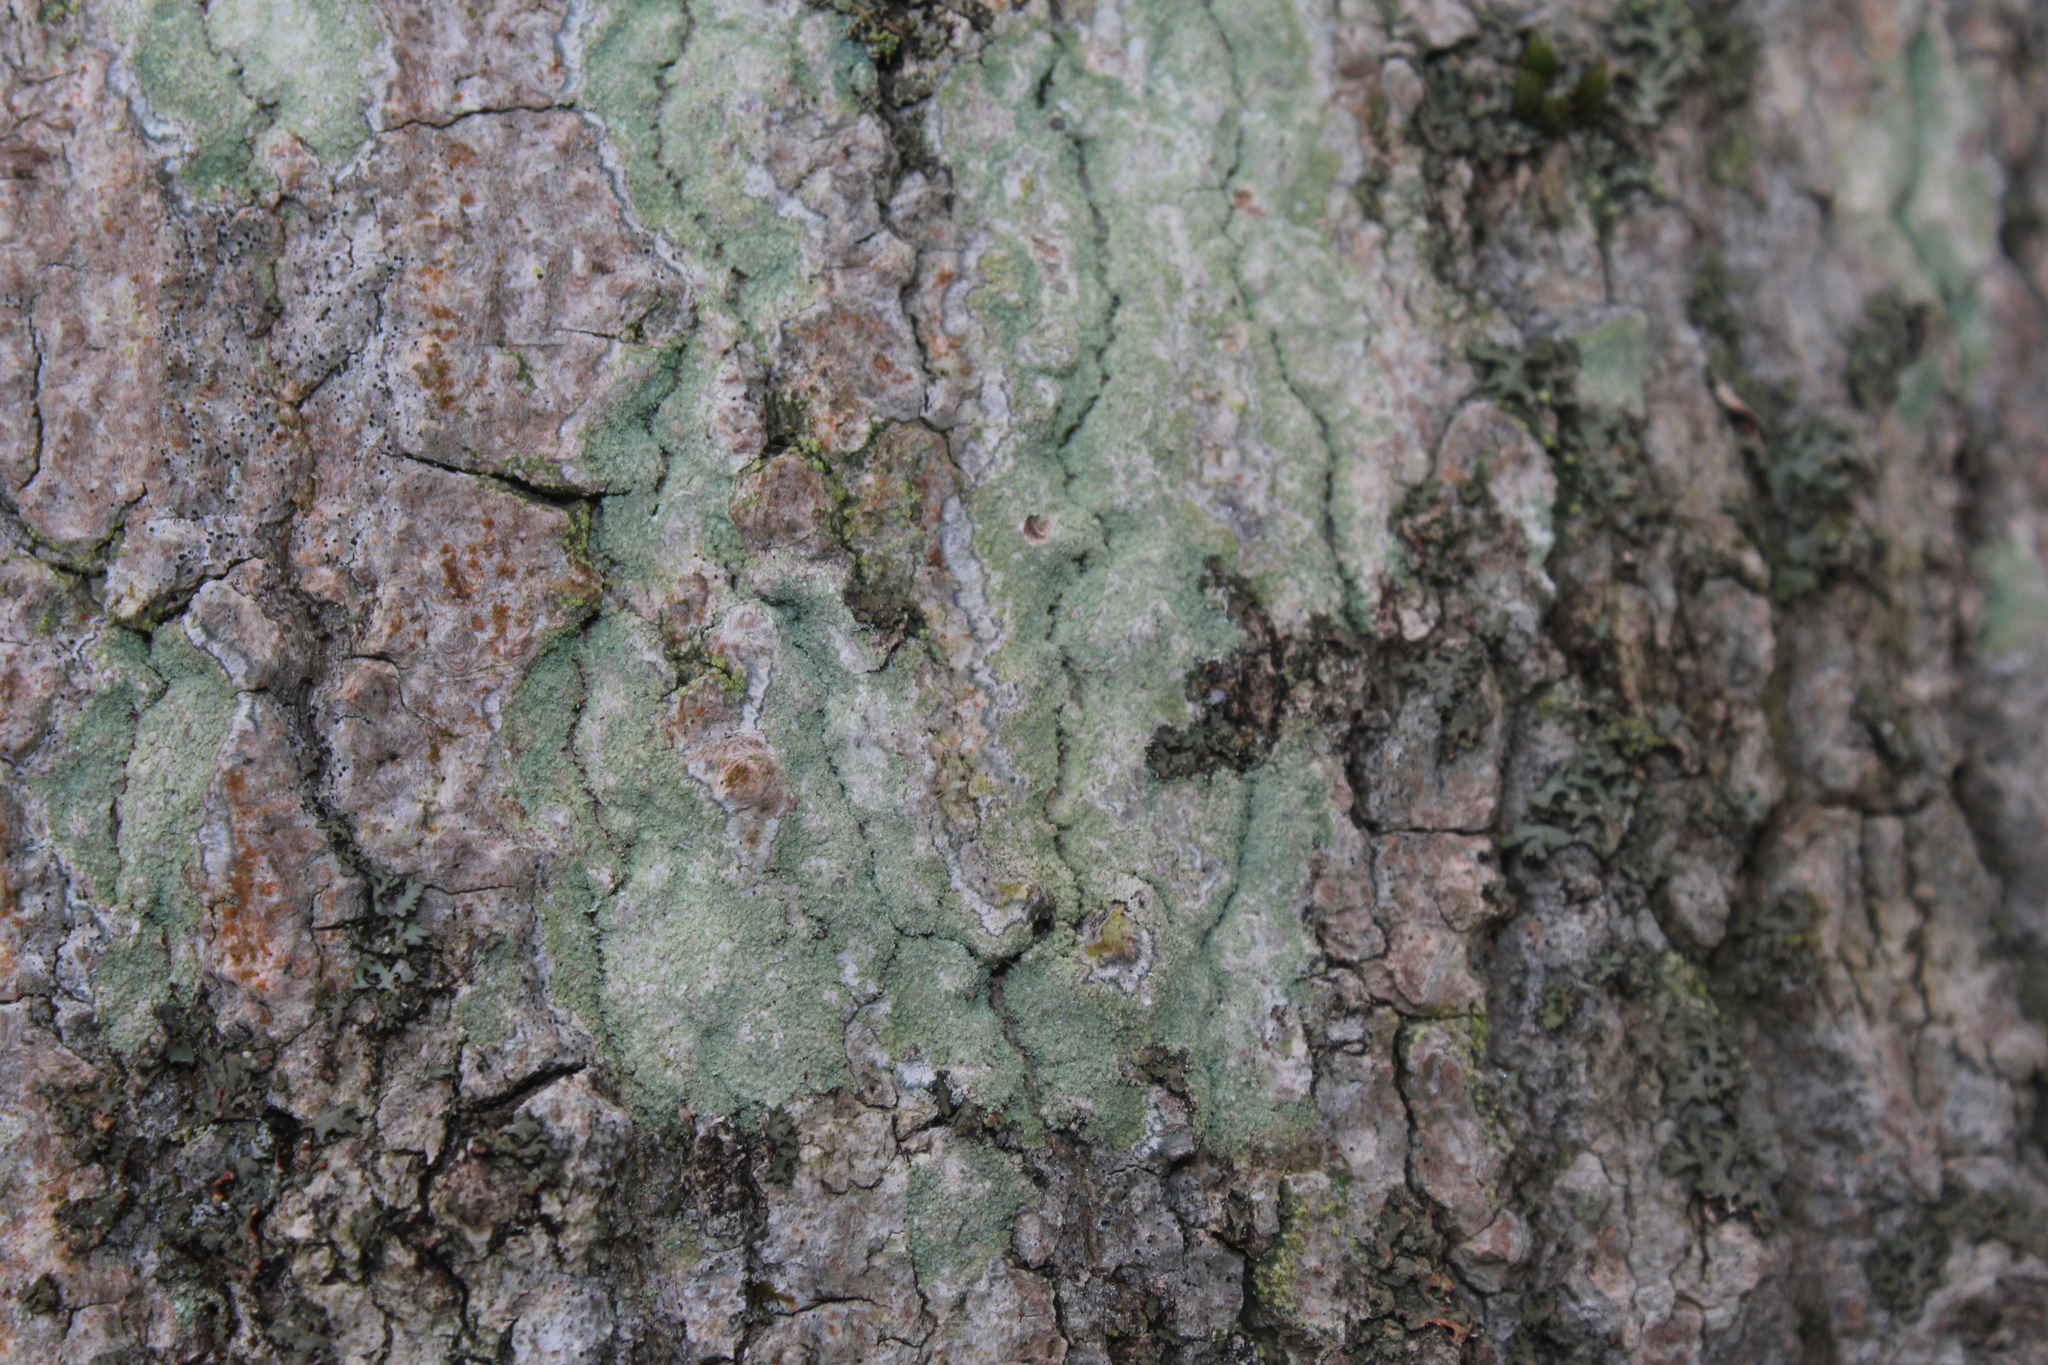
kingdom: Fungi
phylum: Ascomycota
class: Lecanoromycetes
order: Pertusariales
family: Pertusariaceae
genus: Verseghya
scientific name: Verseghya thysanophora
